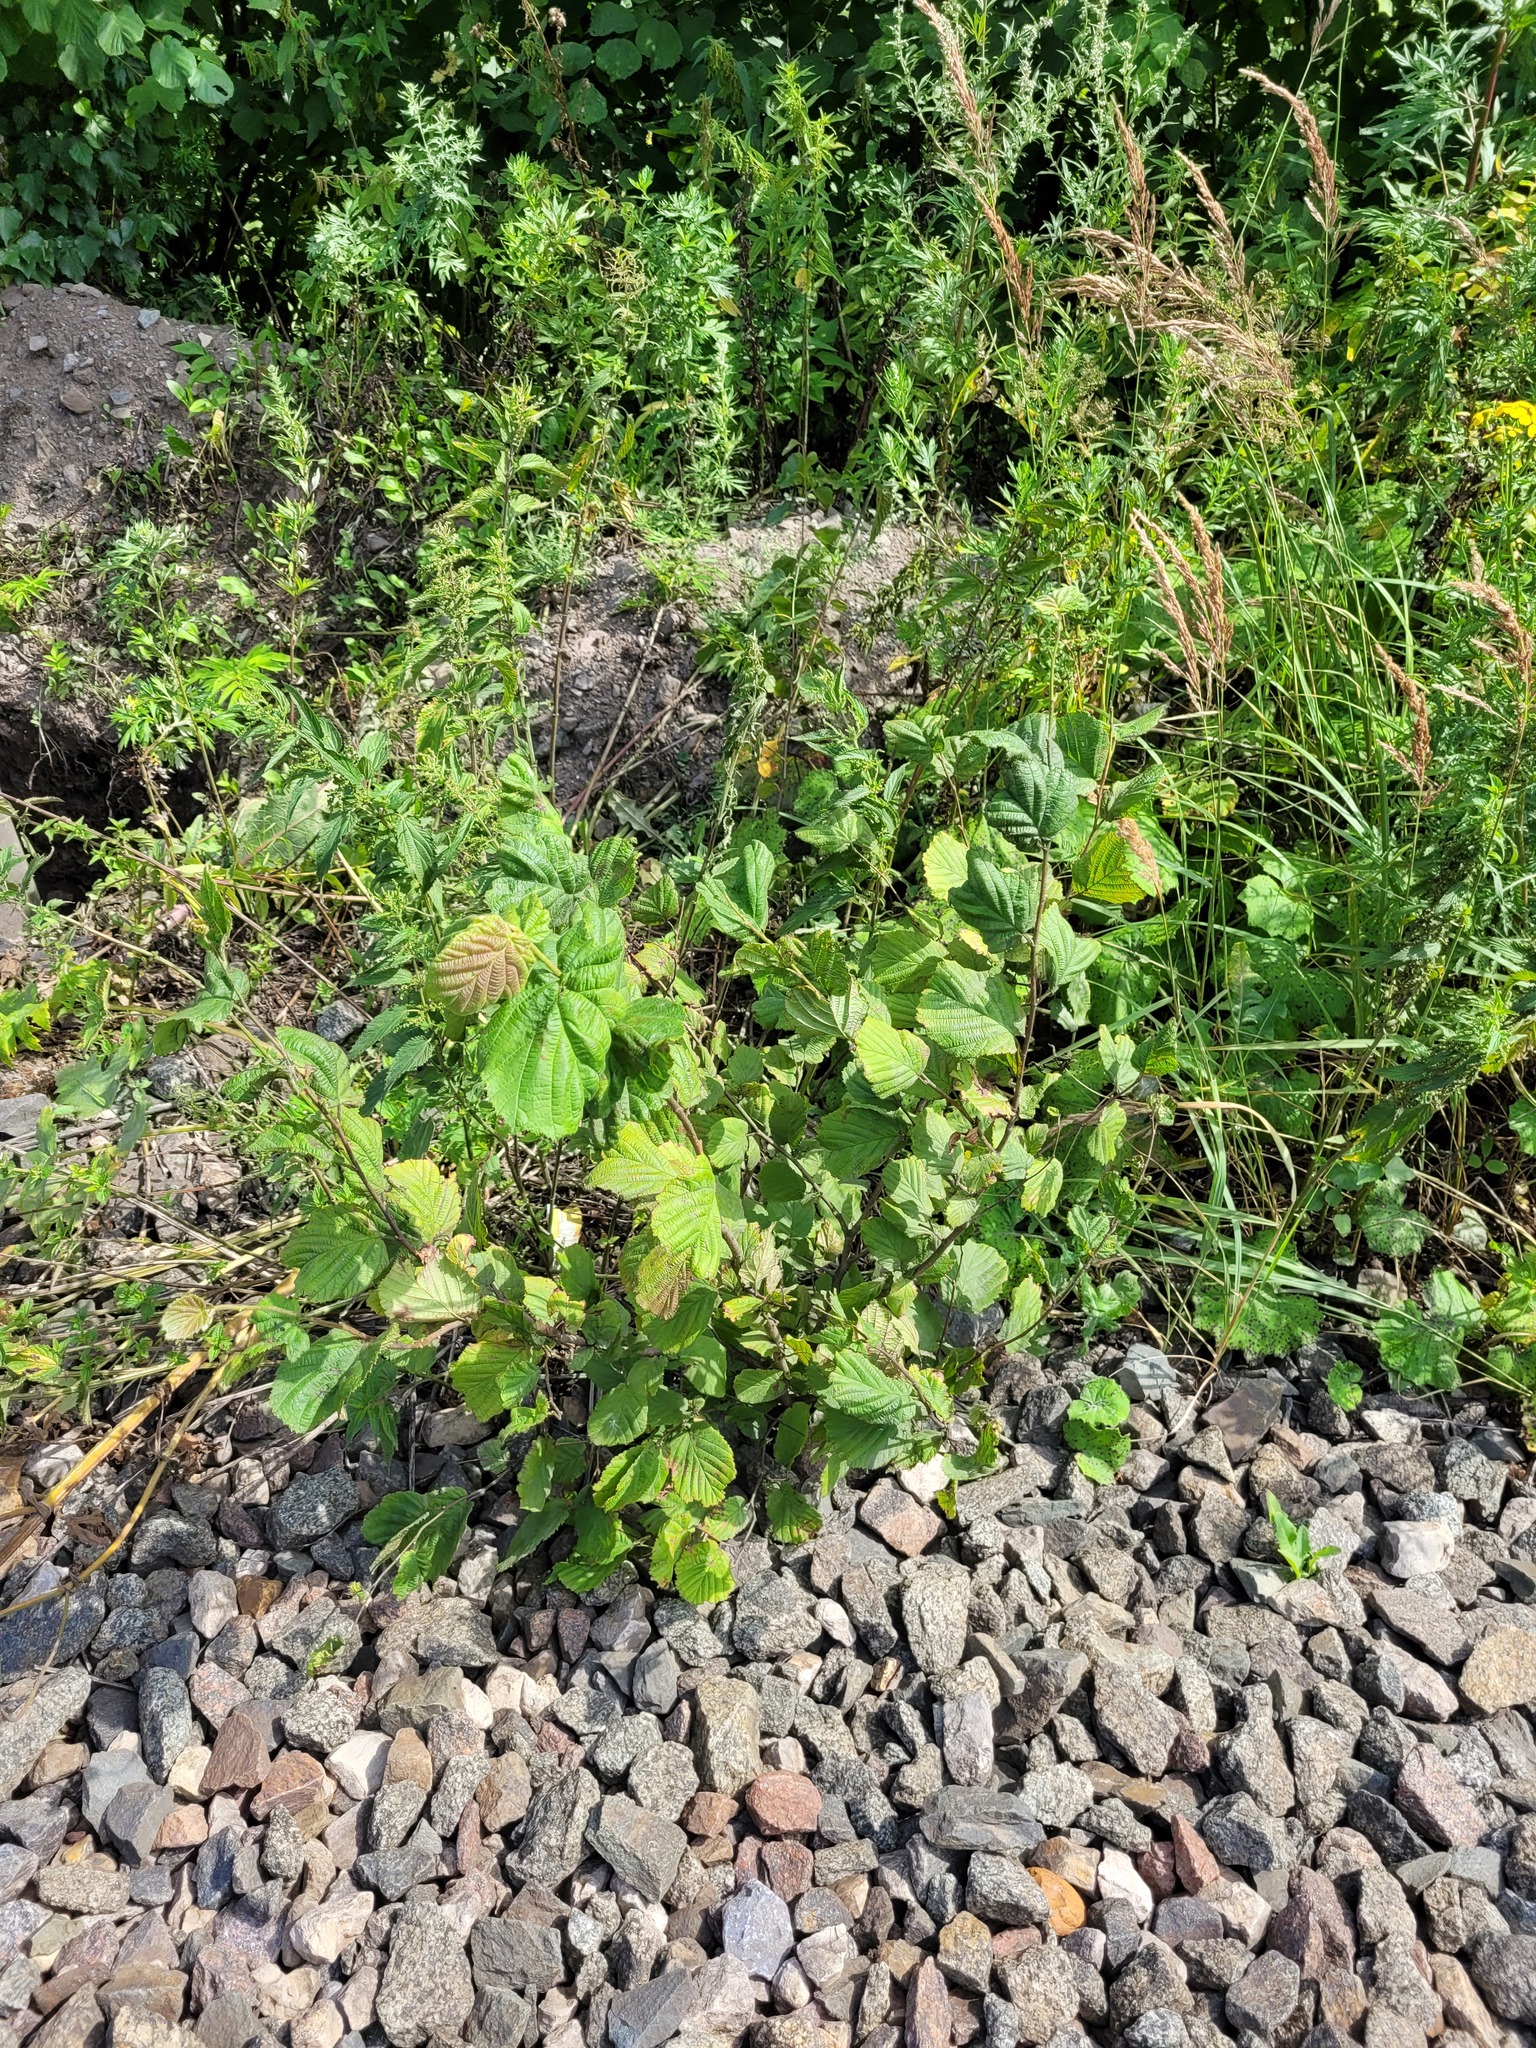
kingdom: Plantae
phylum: Tracheophyta
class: Magnoliopsida
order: Fagales
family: Betulaceae
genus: Corylus
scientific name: Corylus avellana
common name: European hazel
